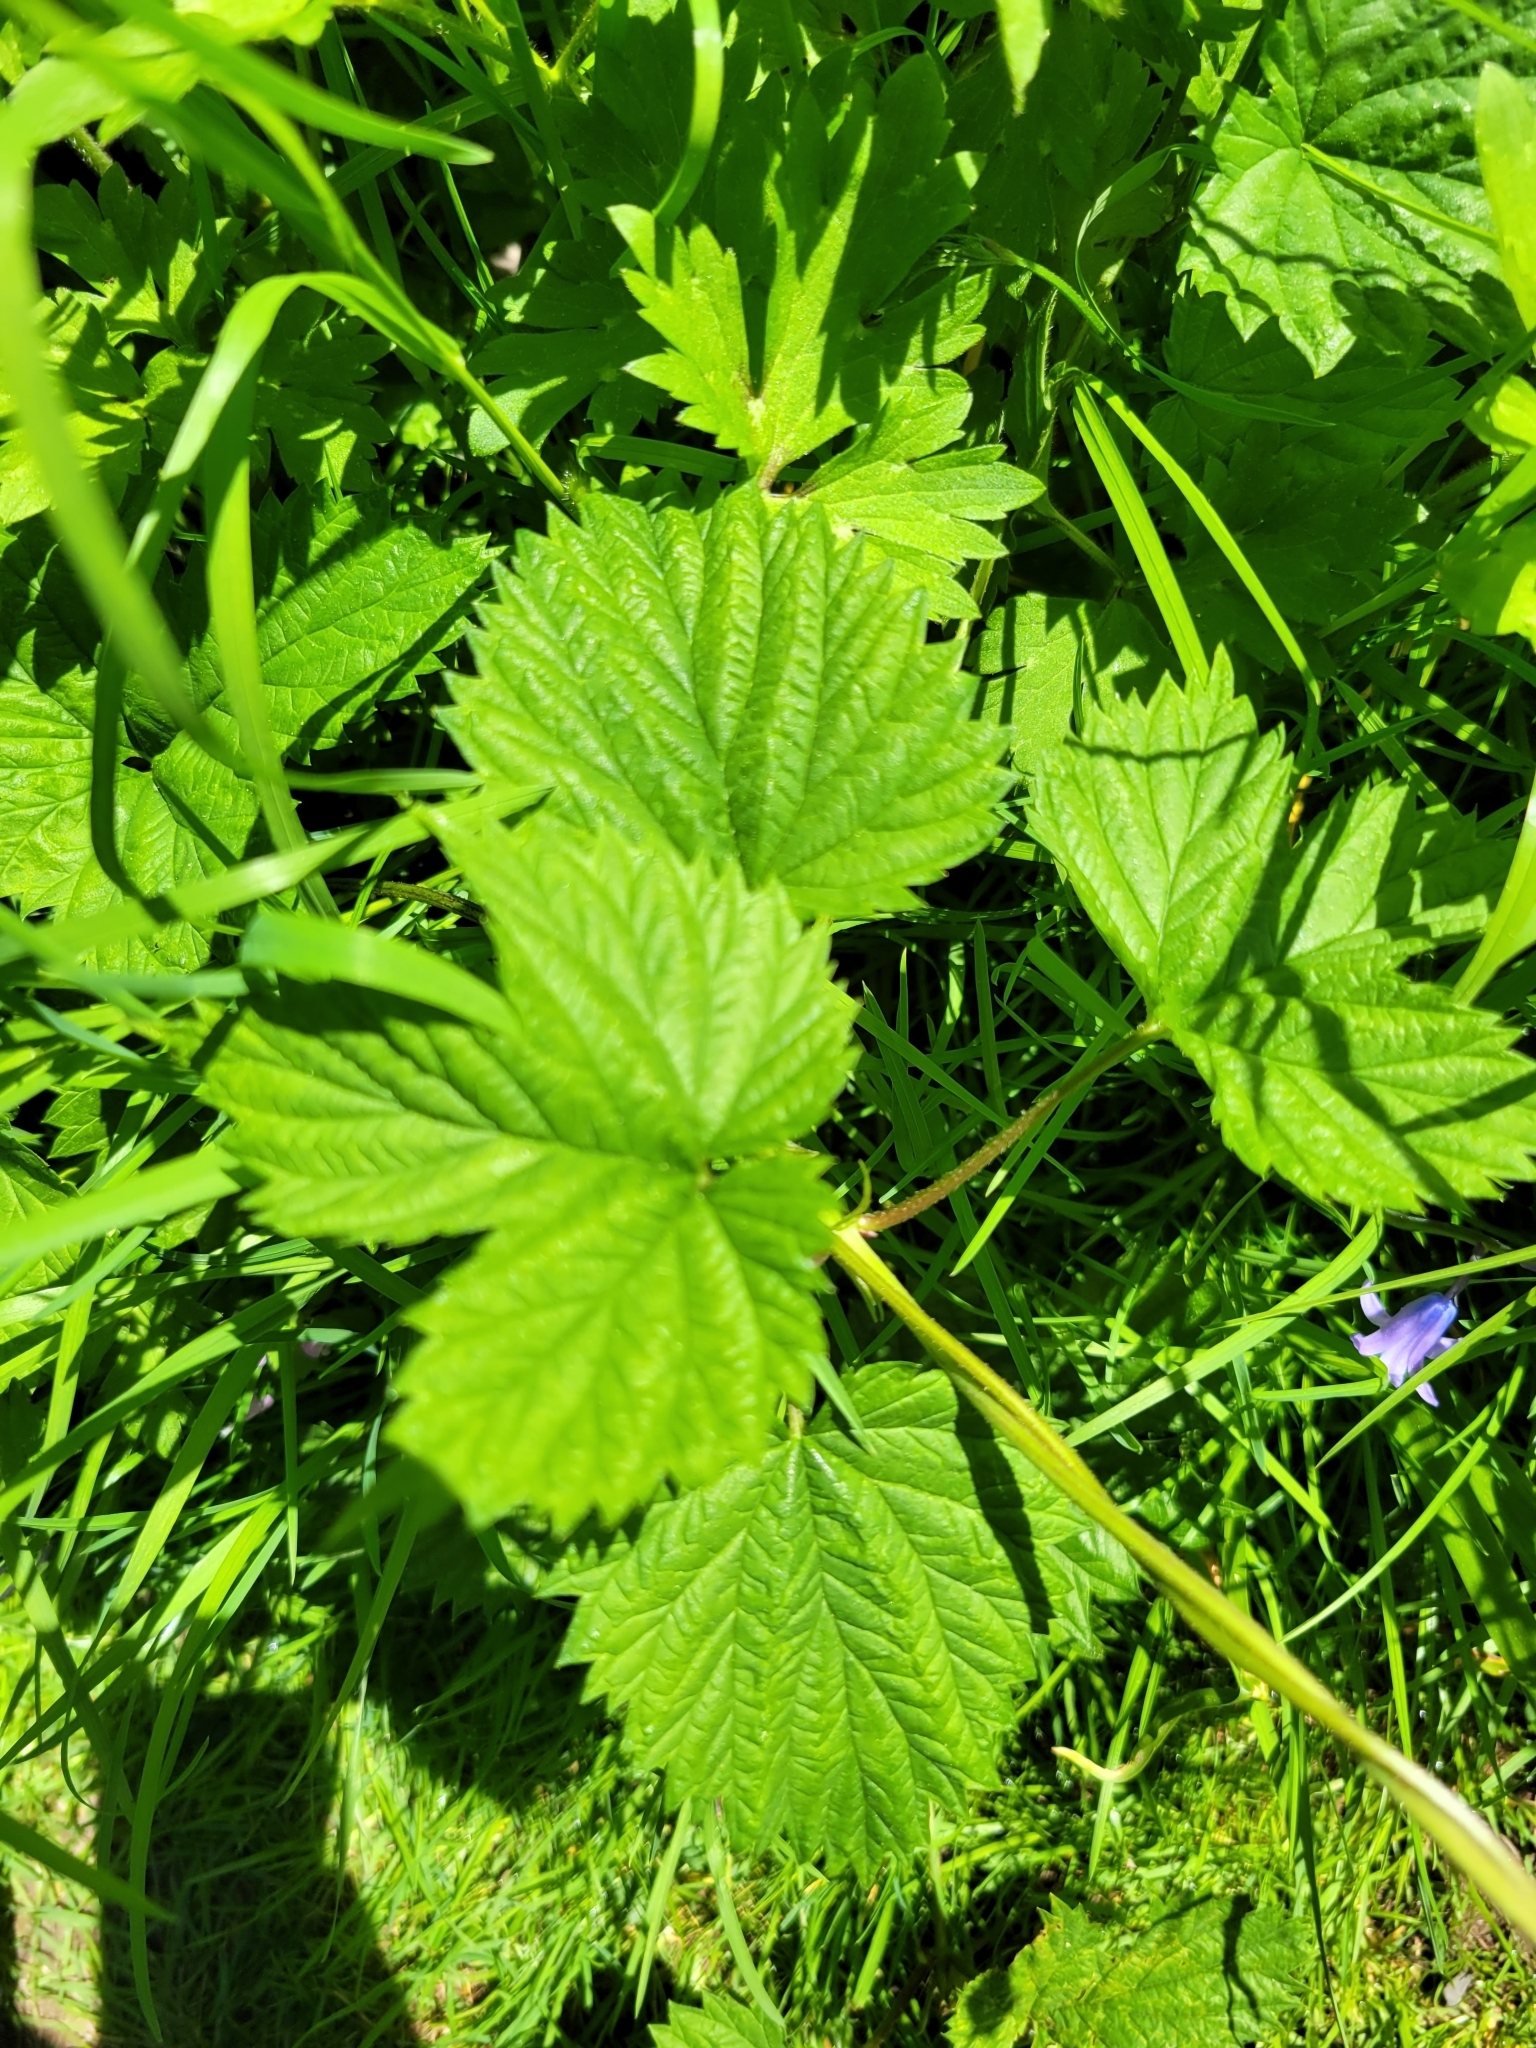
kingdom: Plantae
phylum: Tracheophyta
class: Magnoliopsida
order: Rosales
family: Cannabaceae
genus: Humulus
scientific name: Humulus lupulus
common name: Hop
